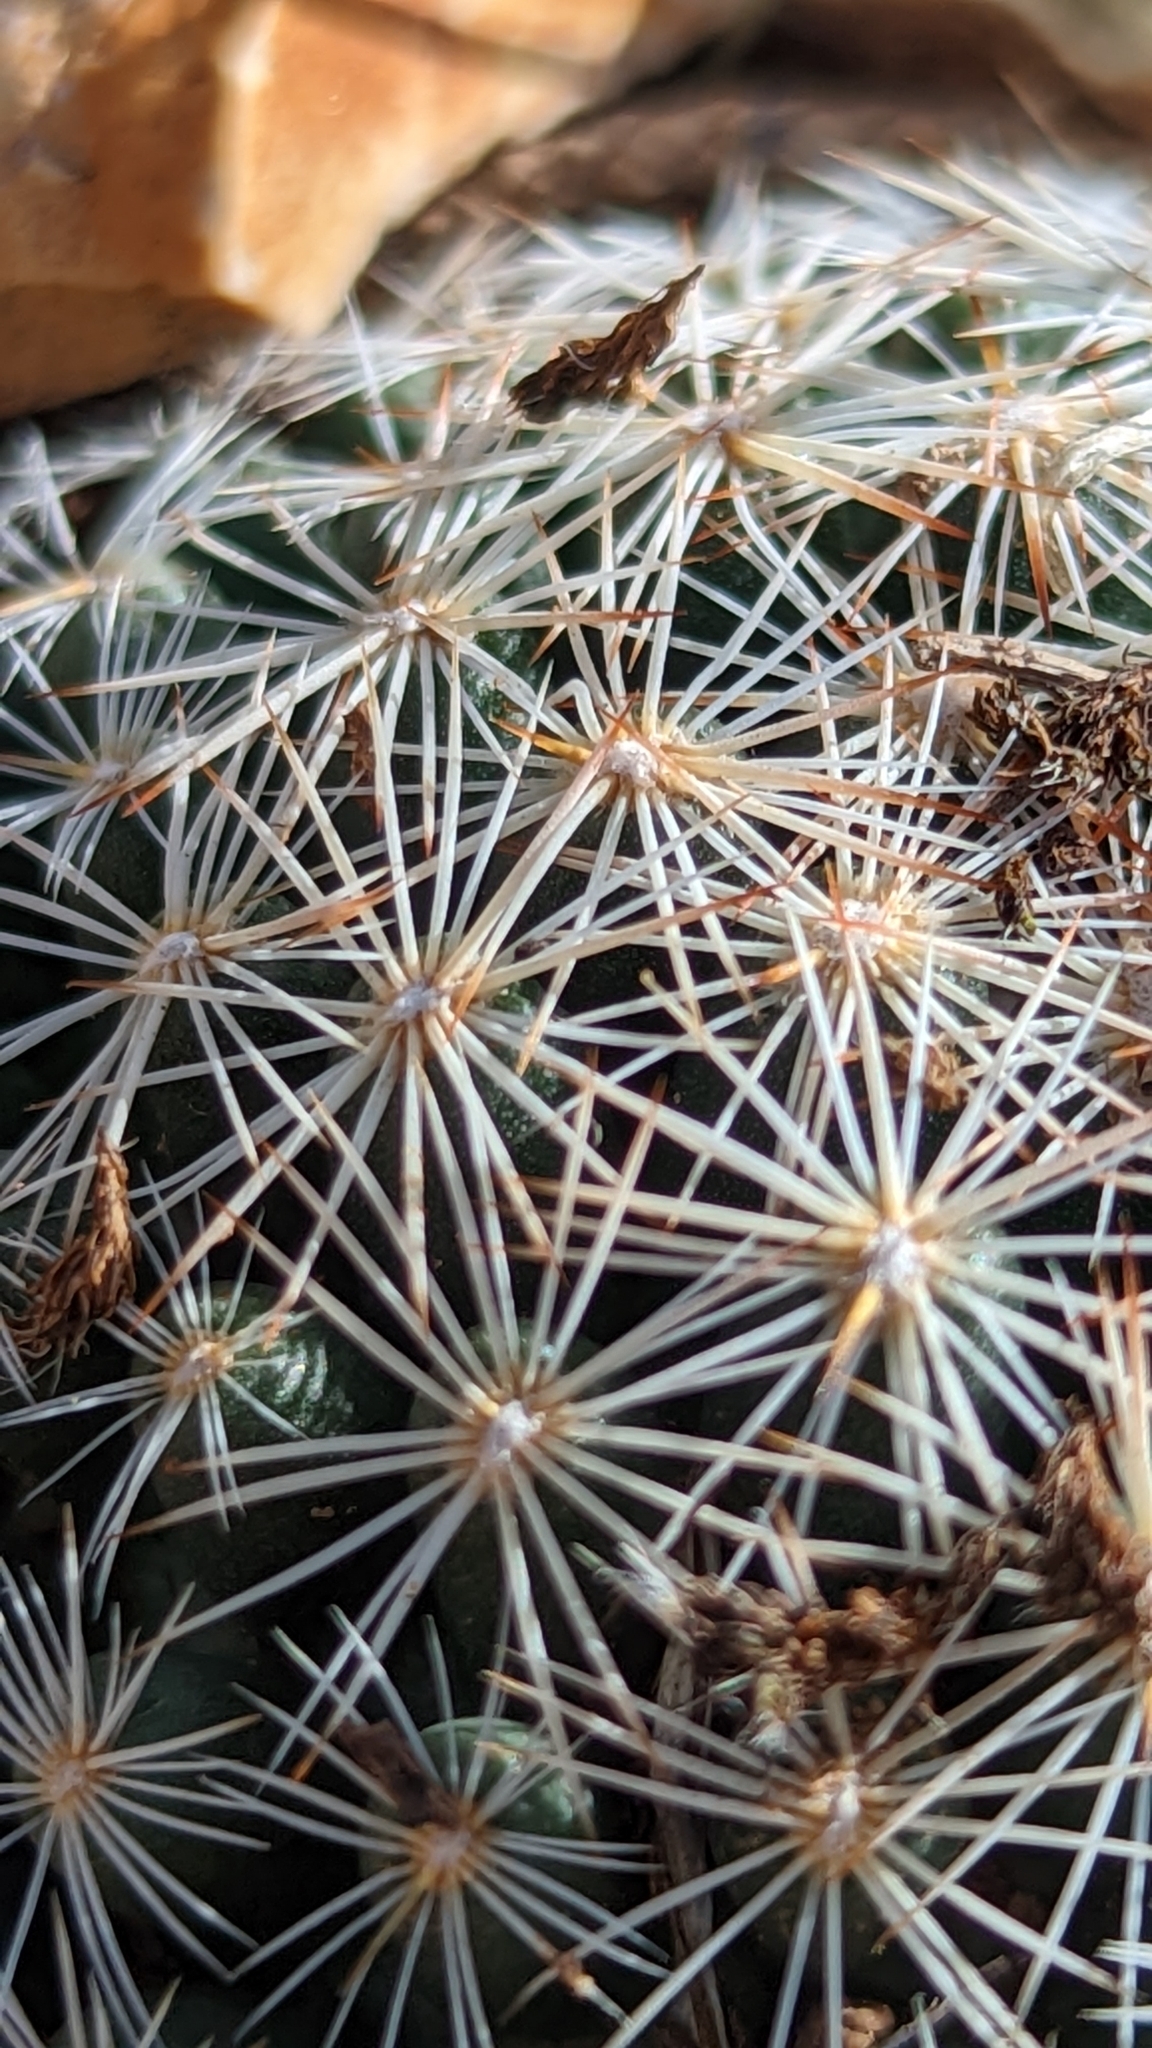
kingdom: Plantae
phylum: Tracheophyta
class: Magnoliopsida
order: Caryophyllales
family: Cactaceae
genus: Pelecyphora
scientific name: Pelecyphora vivipara
